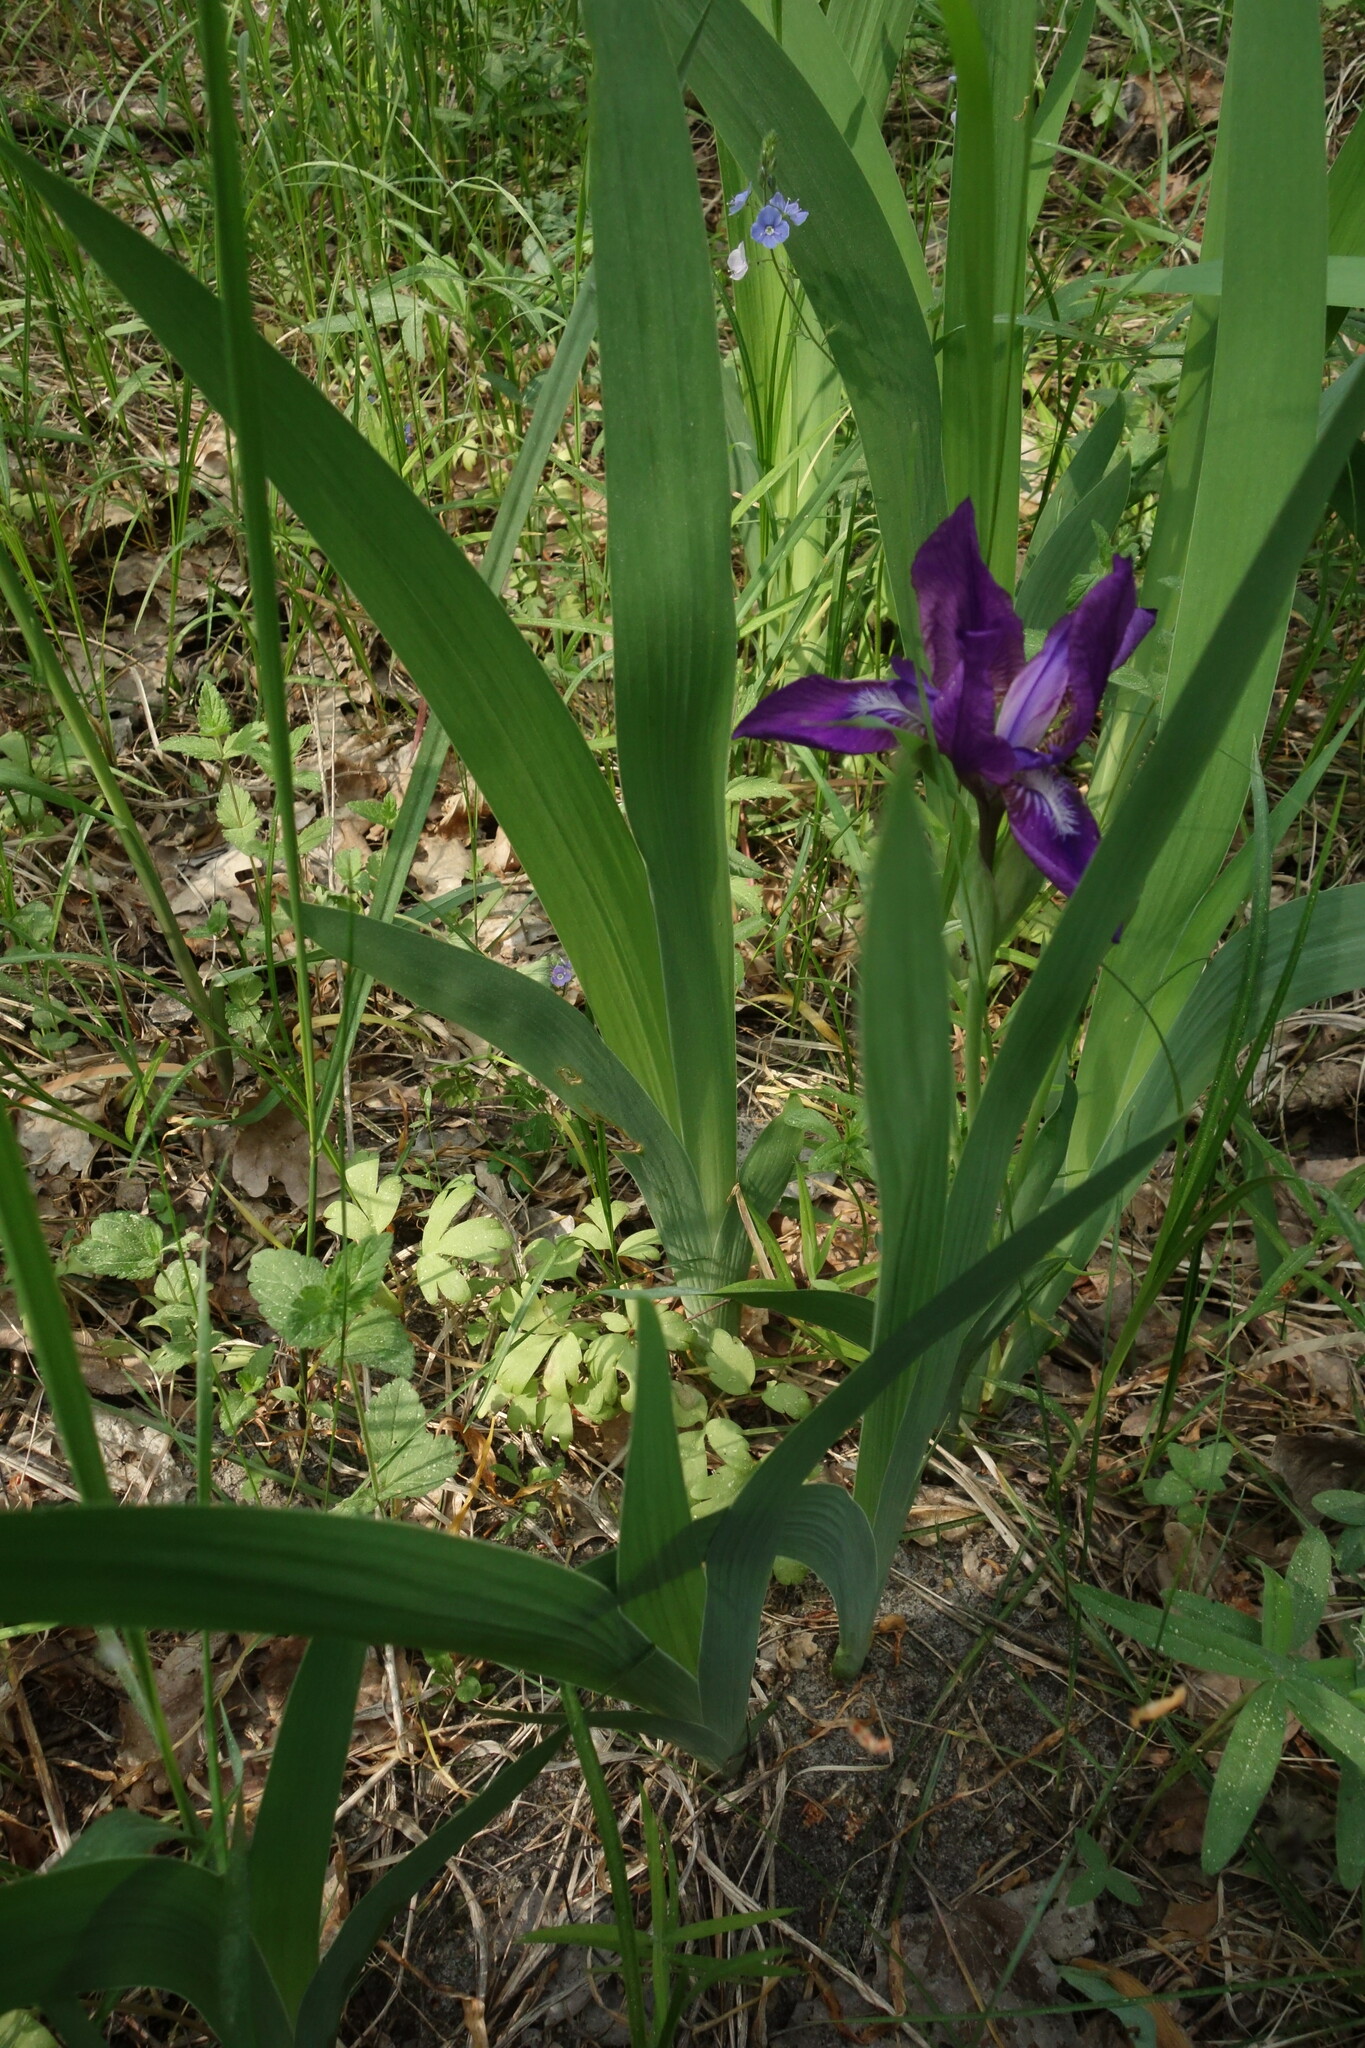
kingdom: Plantae
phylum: Tracheophyta
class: Liliopsida
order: Asparagales
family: Iridaceae
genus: Iris
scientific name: Iris aphylla
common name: Stool iris
